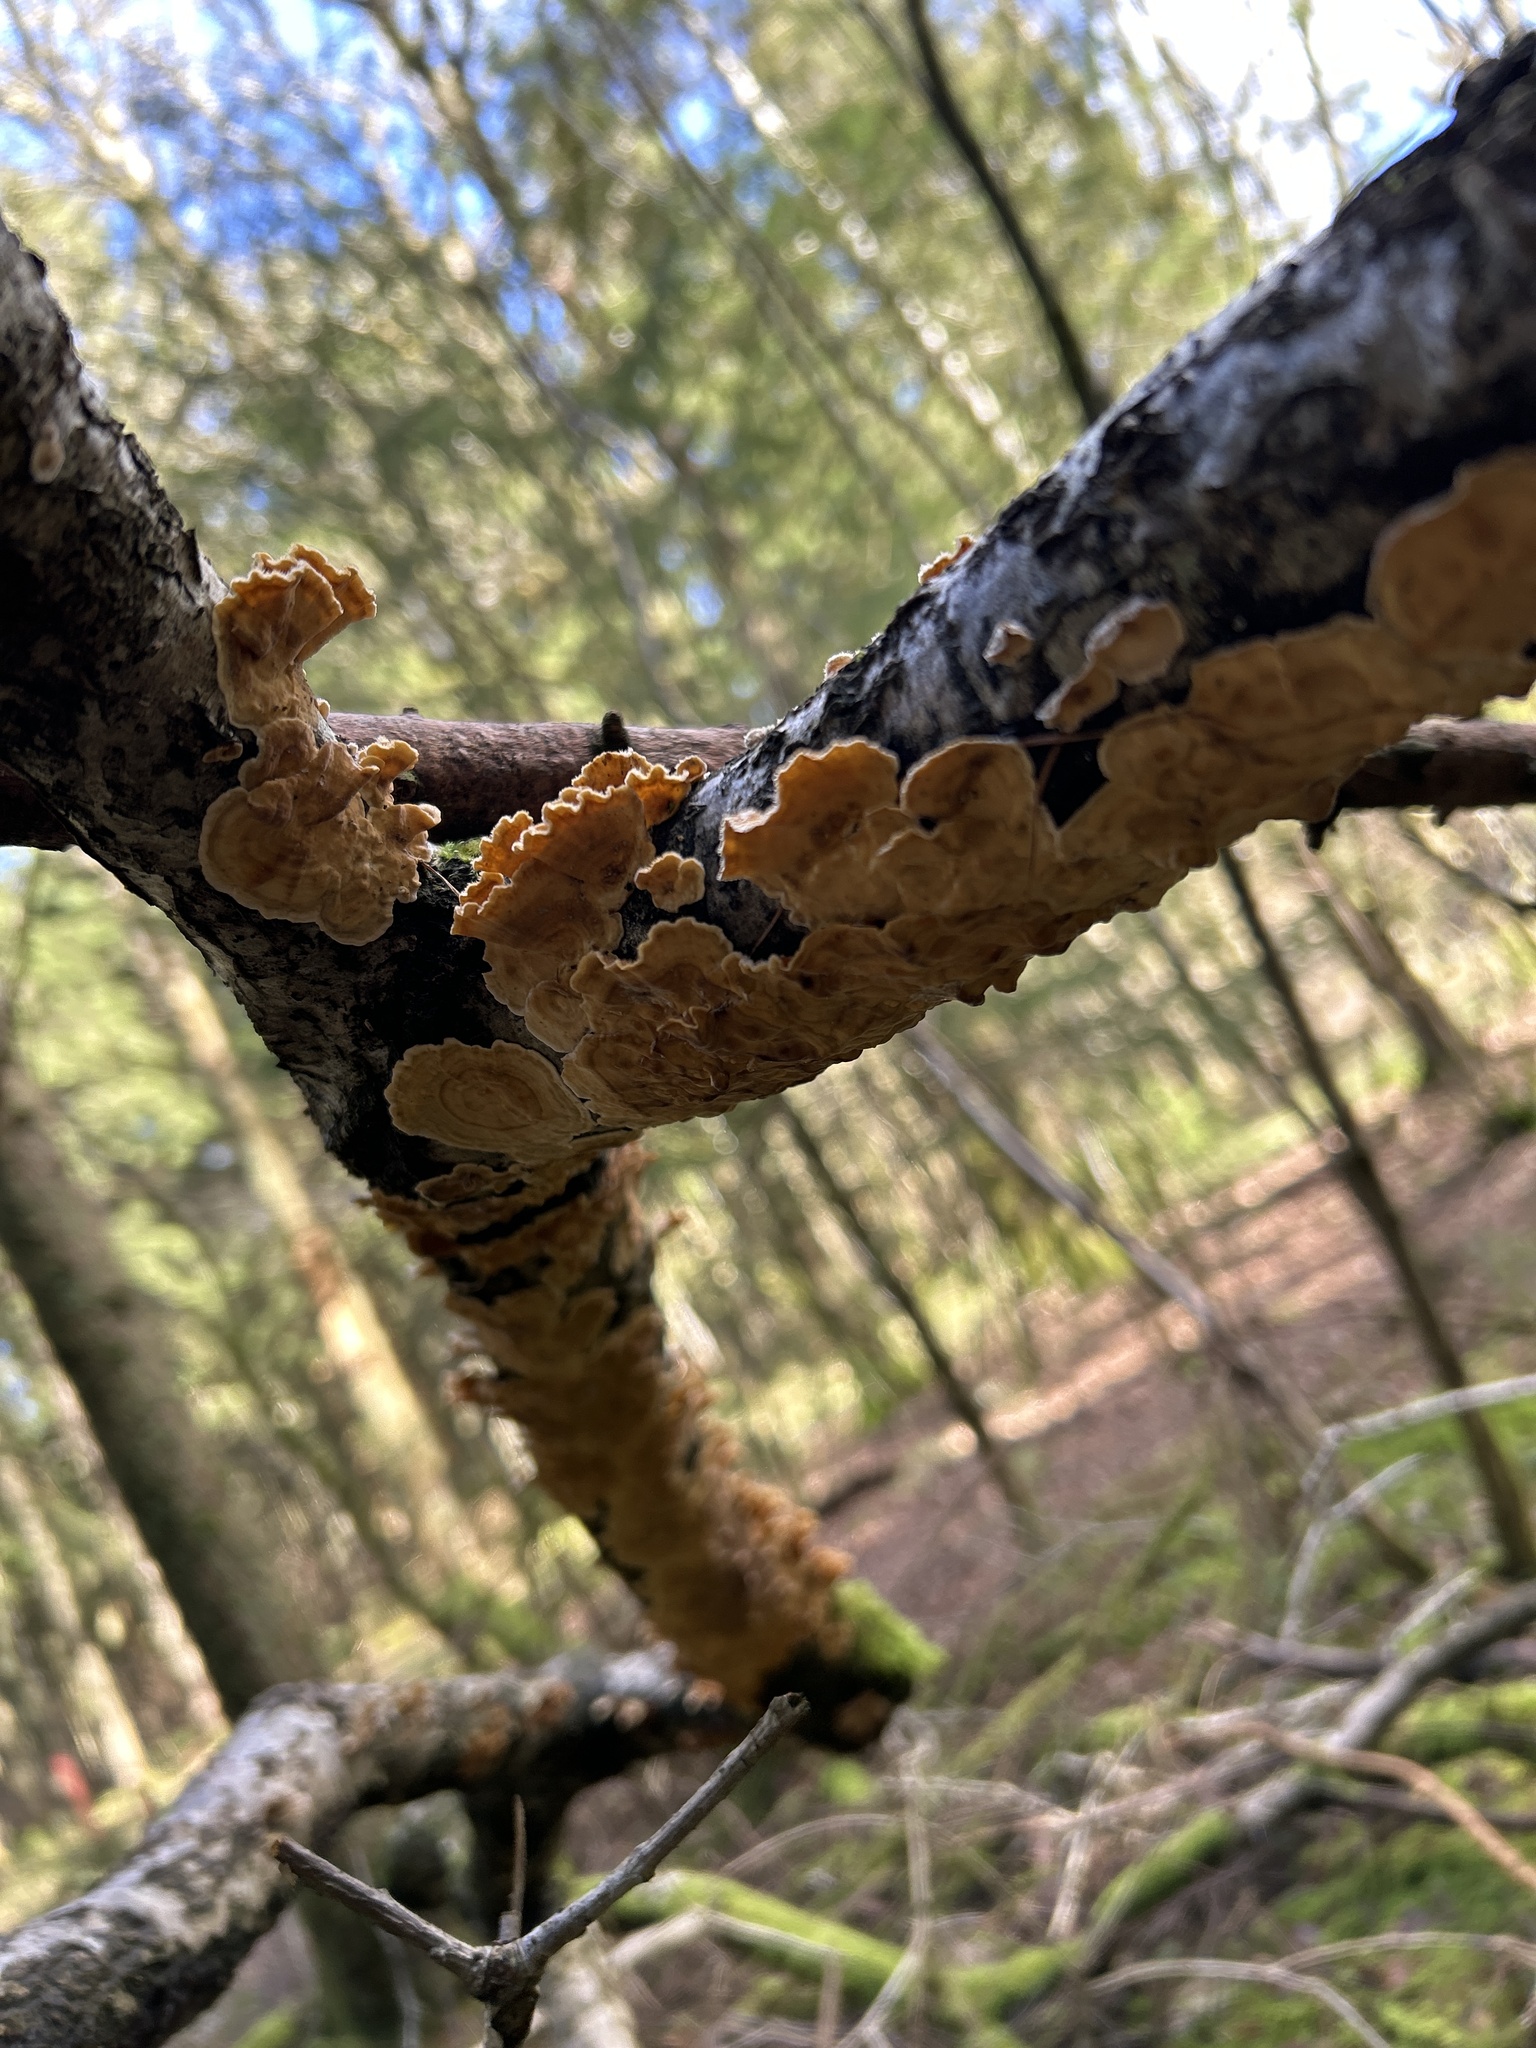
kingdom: Fungi
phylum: Basidiomycota
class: Agaricomycetes
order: Russulales
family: Stereaceae
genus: Stereum
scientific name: Stereum hirsutum
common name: Hairy curtain crust
